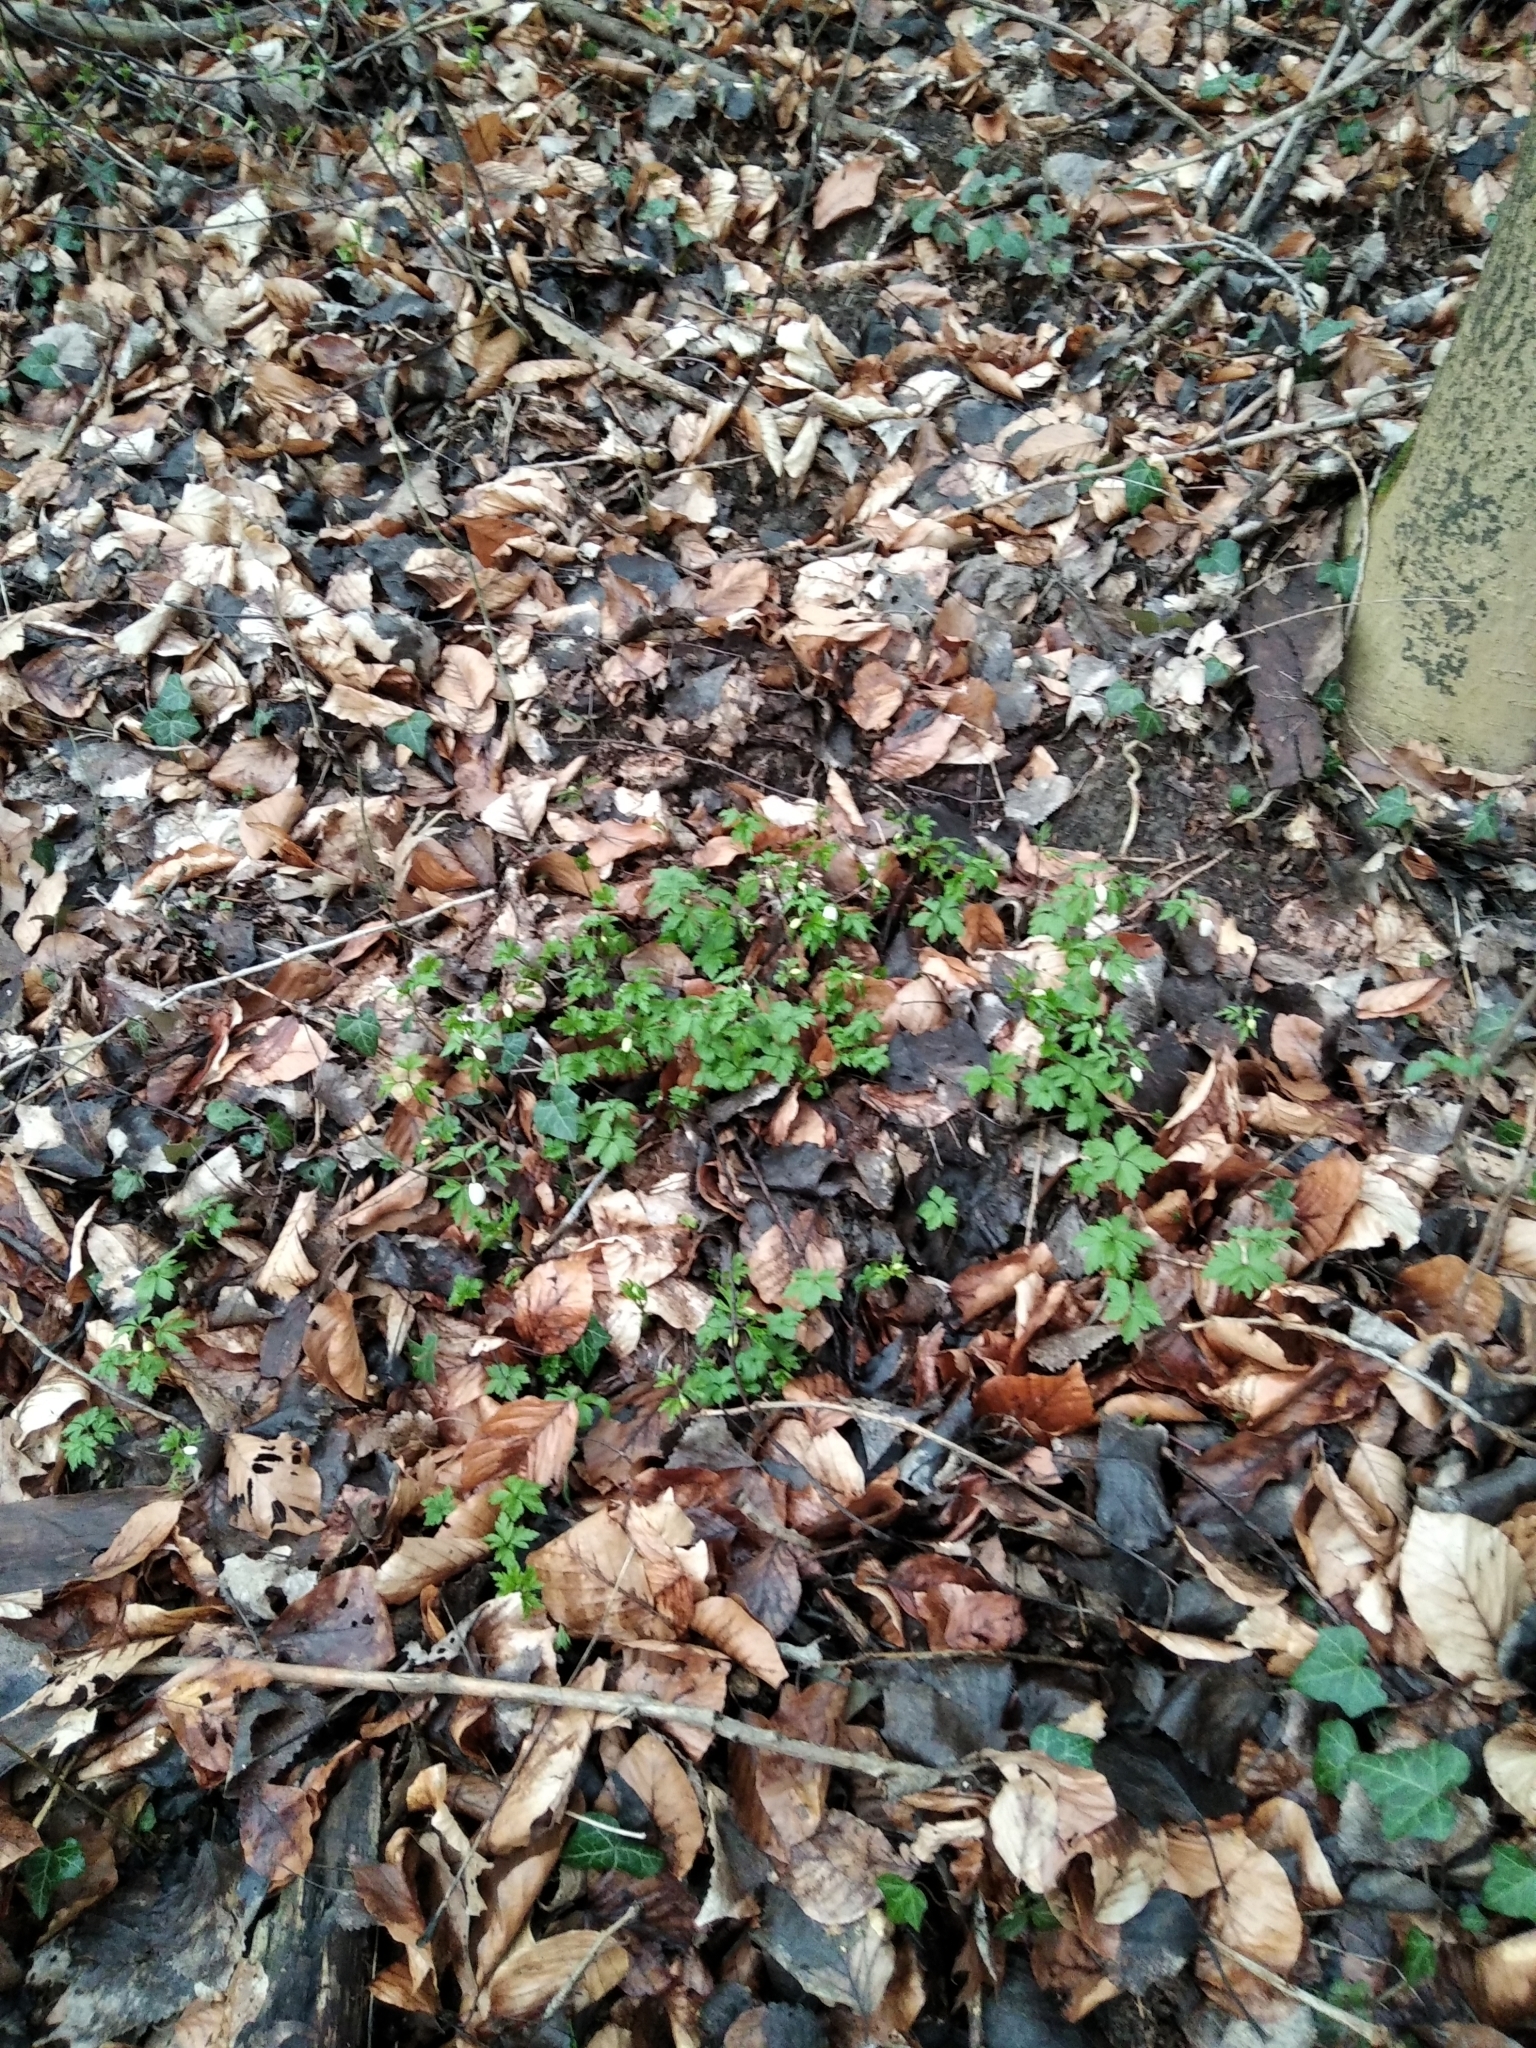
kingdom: Plantae
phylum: Tracheophyta
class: Magnoliopsida
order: Ranunculales
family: Ranunculaceae
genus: Anemone
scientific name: Anemone nemorosa
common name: Wood anemone
